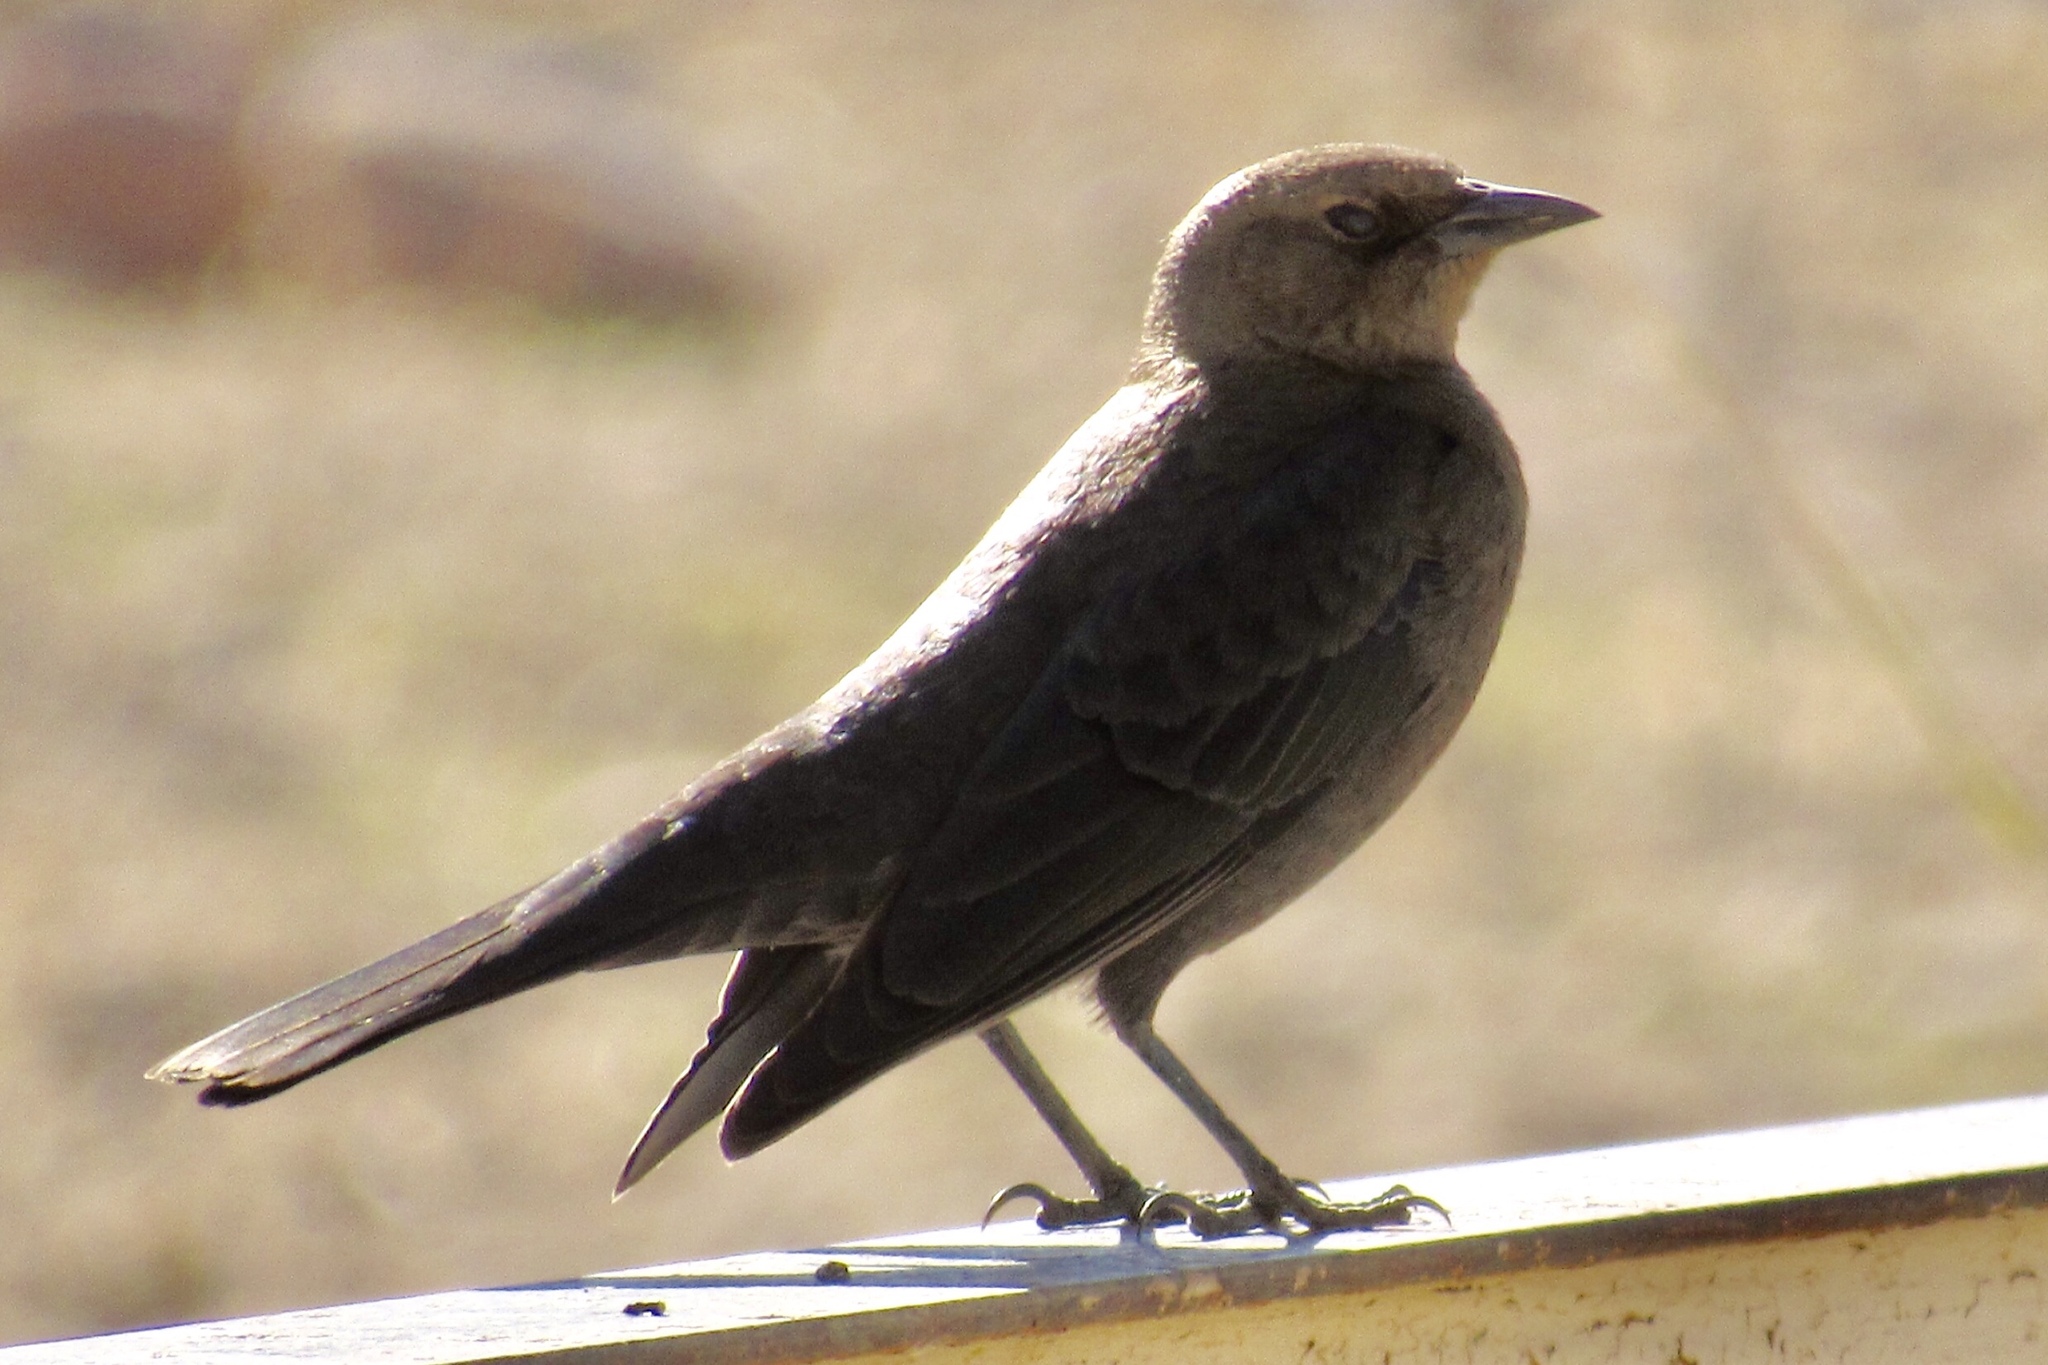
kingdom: Animalia
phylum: Chordata
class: Aves
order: Passeriformes
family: Icteridae
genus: Euphagus
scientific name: Euphagus cyanocephalus
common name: Brewer's blackbird
